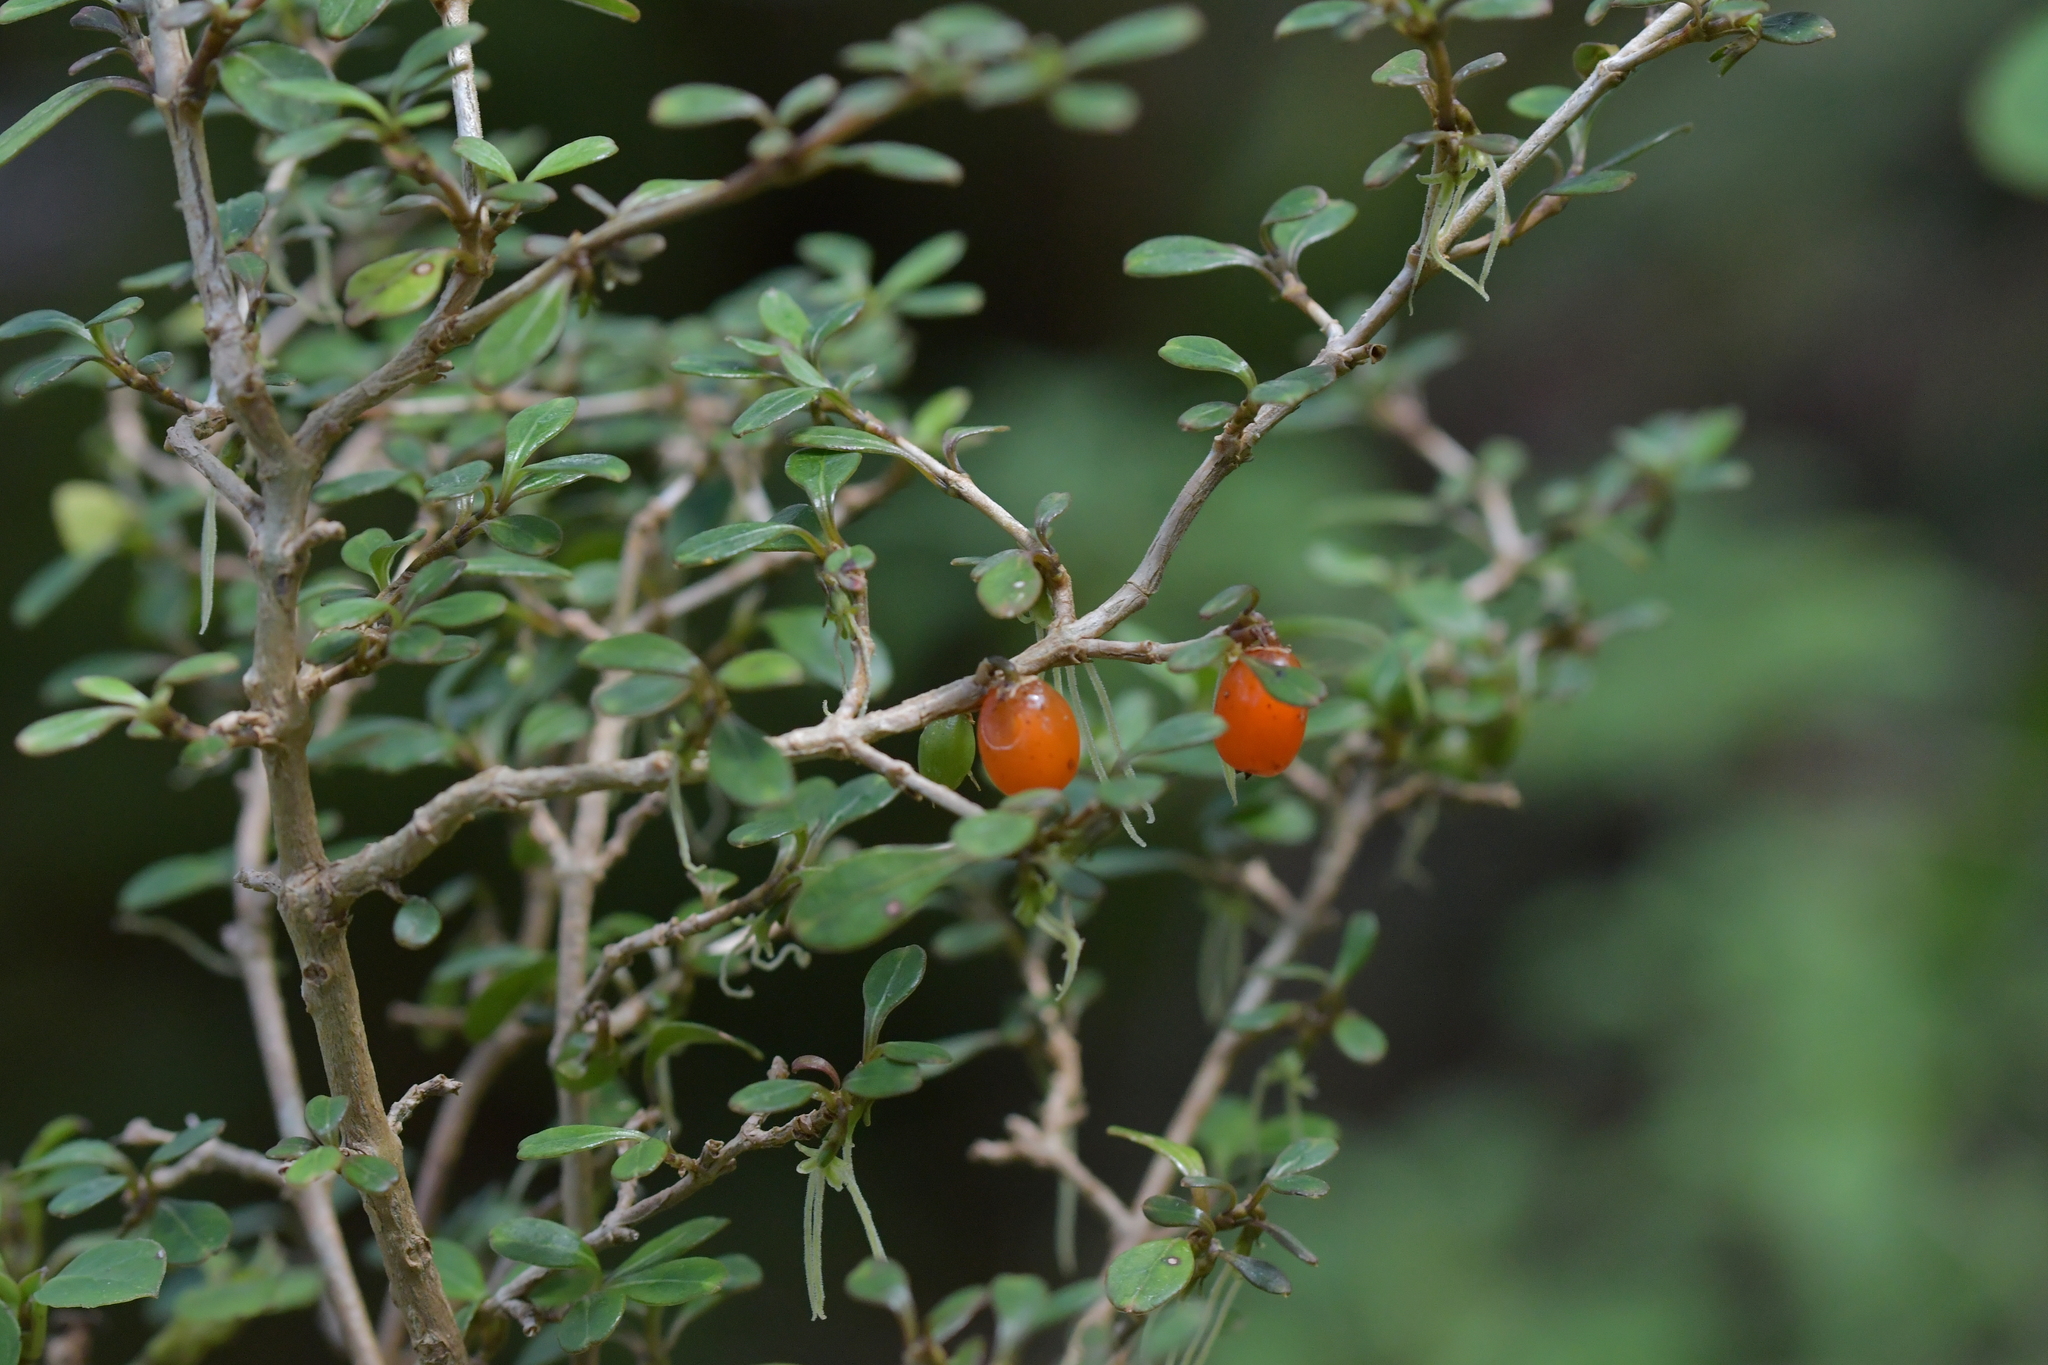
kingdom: Plantae
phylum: Tracheophyta
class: Magnoliopsida
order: Gentianales
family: Rubiaceae
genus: Coprosma
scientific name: Coprosma colensoi
